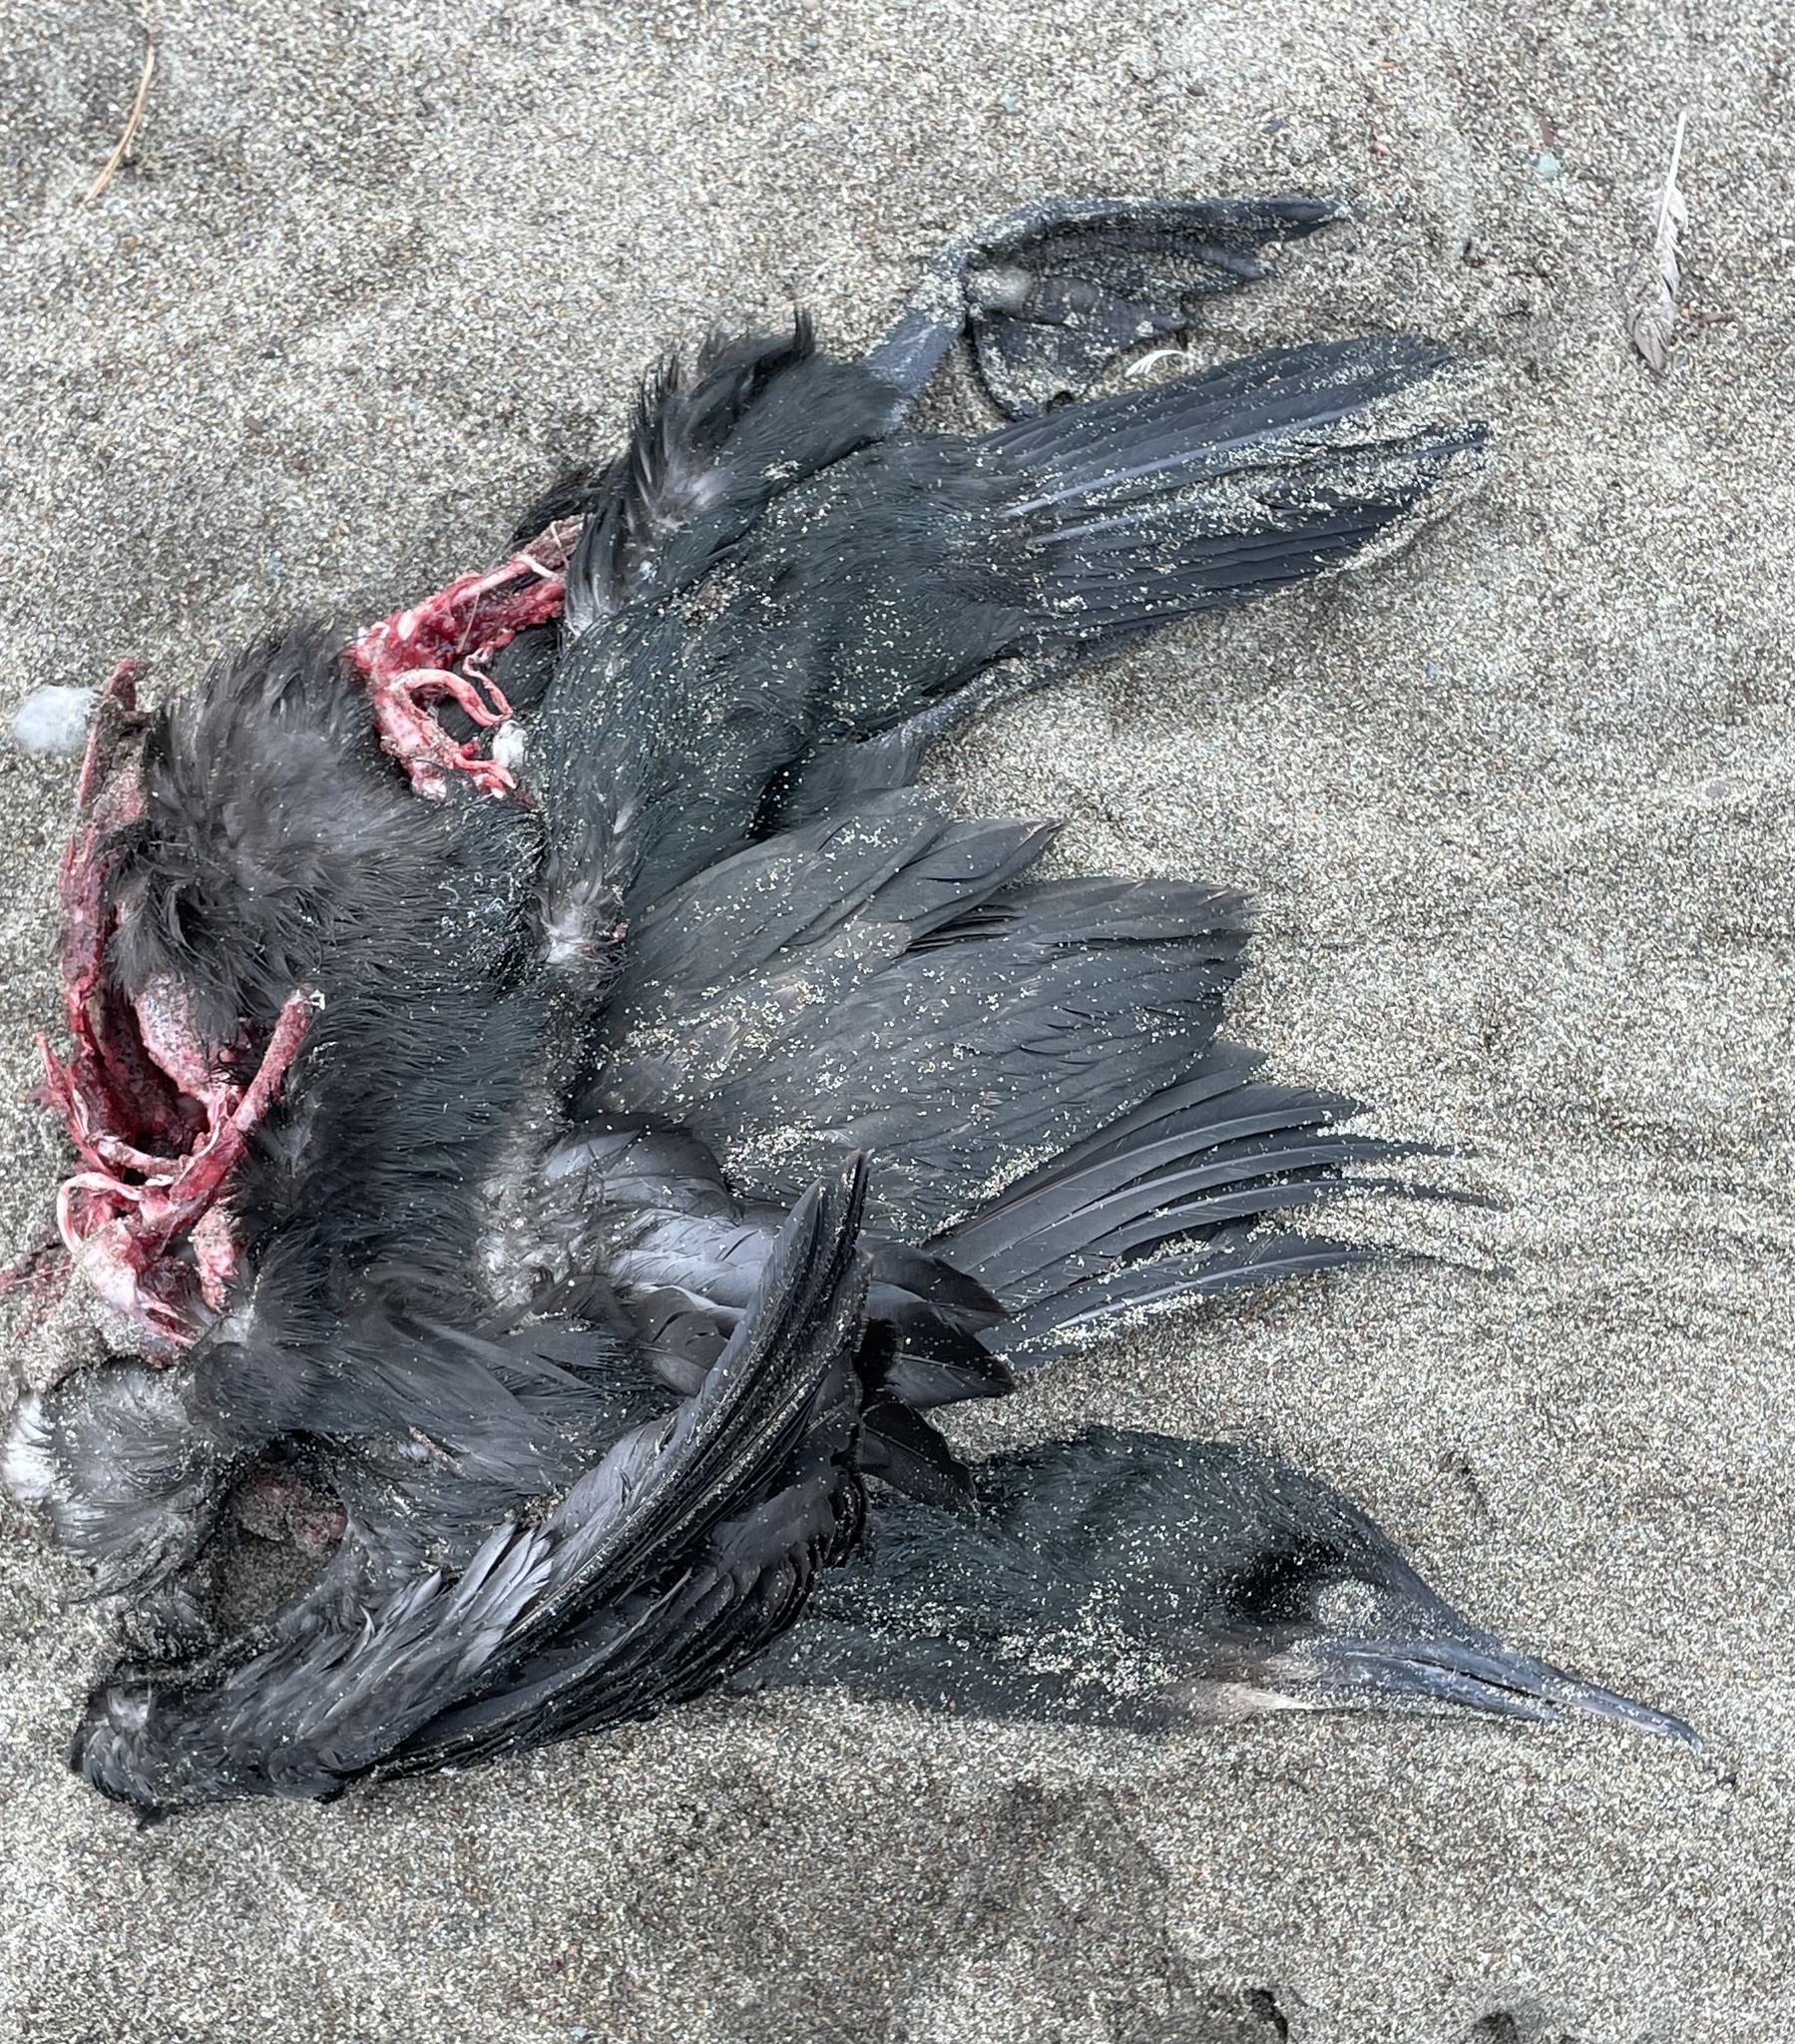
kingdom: Animalia
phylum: Chordata
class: Aves
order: Suliformes
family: Phalacrocoracidae
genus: Urile
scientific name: Urile penicillatus
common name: Brandt's cormorant
